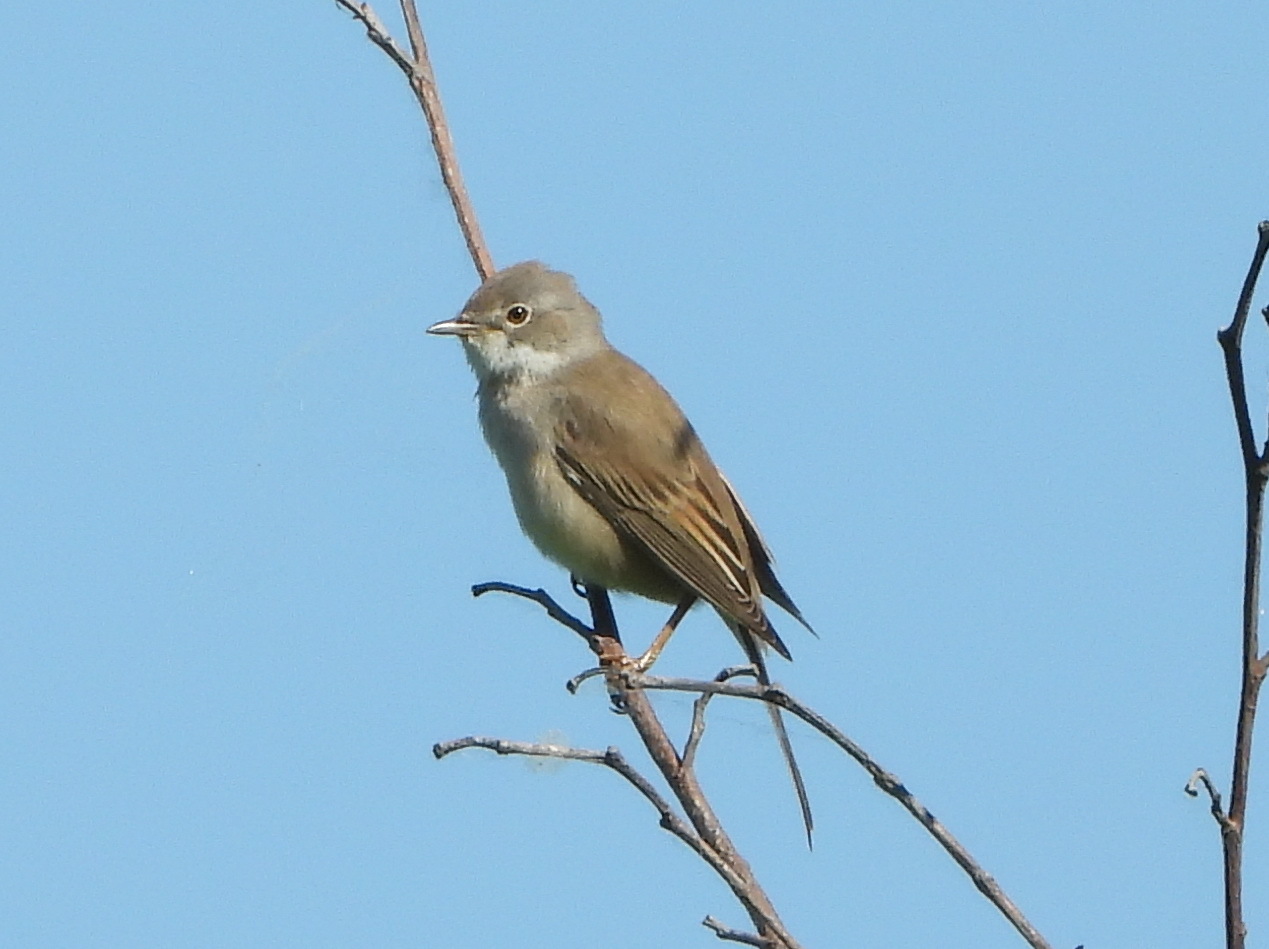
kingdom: Animalia
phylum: Chordata
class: Aves
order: Passeriformes
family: Sylviidae
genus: Sylvia
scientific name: Sylvia communis
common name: Common whitethroat
